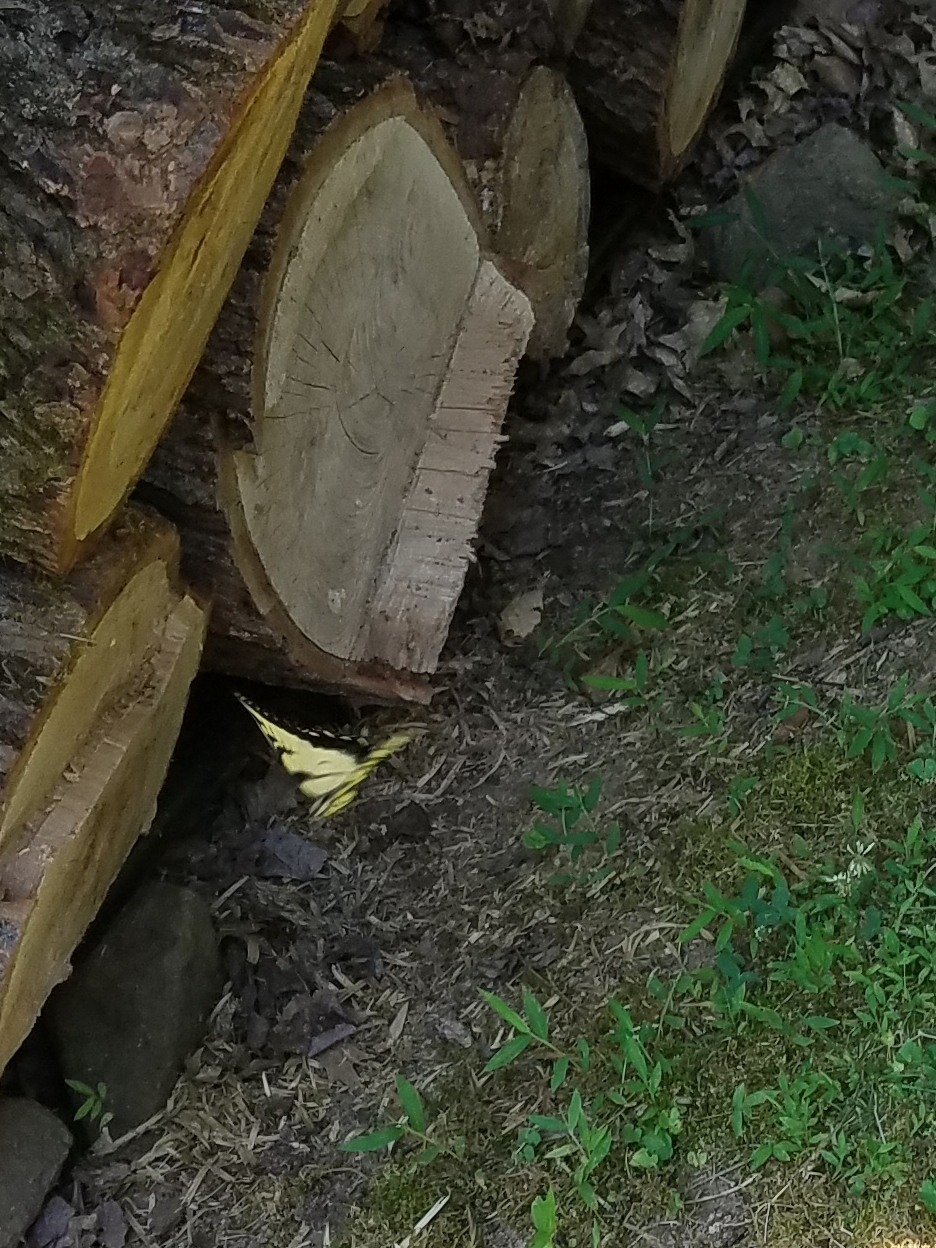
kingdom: Animalia
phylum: Arthropoda
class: Insecta
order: Lepidoptera
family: Papilionidae
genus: Papilio
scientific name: Papilio glaucus
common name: Tiger swallowtail
